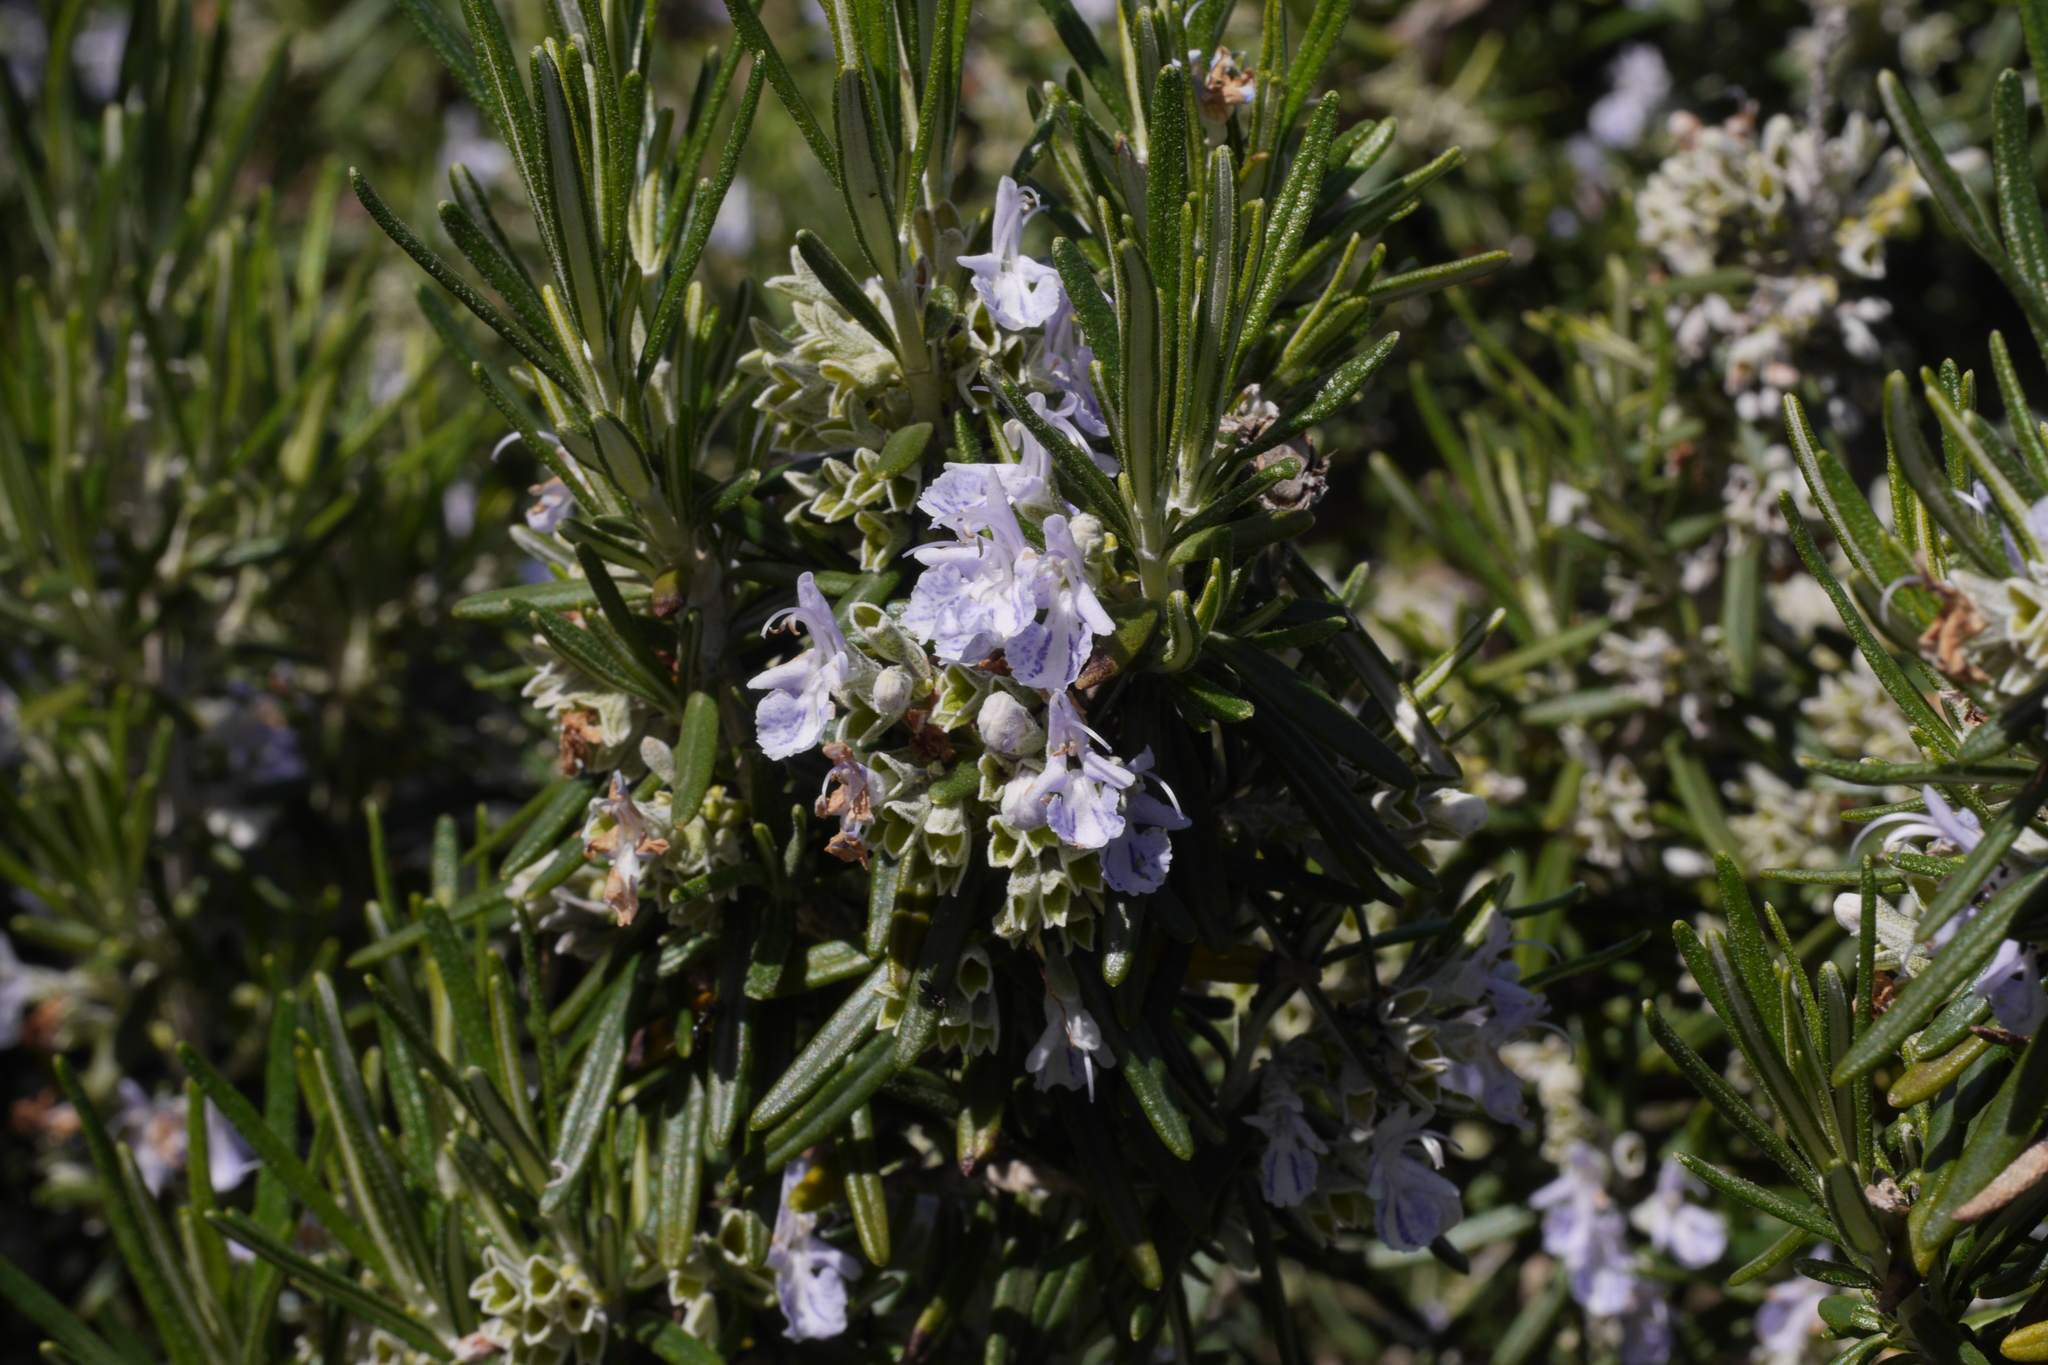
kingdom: Plantae
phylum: Tracheophyta
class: Magnoliopsida
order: Lamiales
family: Lamiaceae
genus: Salvia
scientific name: Salvia rosmarinus
